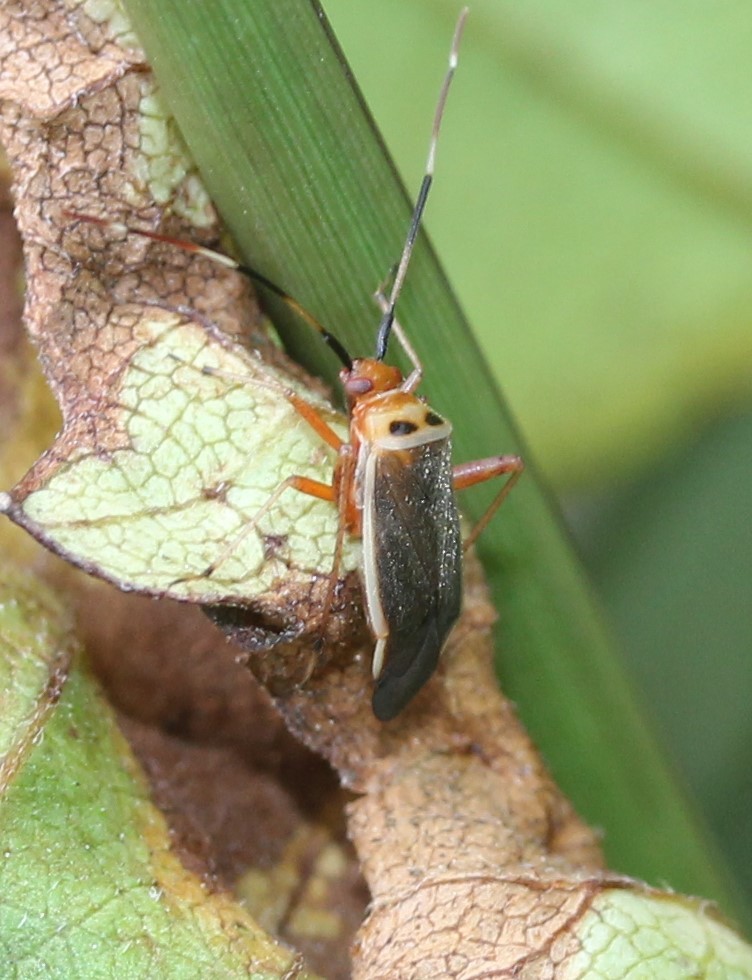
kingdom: Animalia
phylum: Arthropoda
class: Insecta
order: Hemiptera
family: Miridae
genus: Adelphocoris
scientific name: Adelphocoris rapidus
